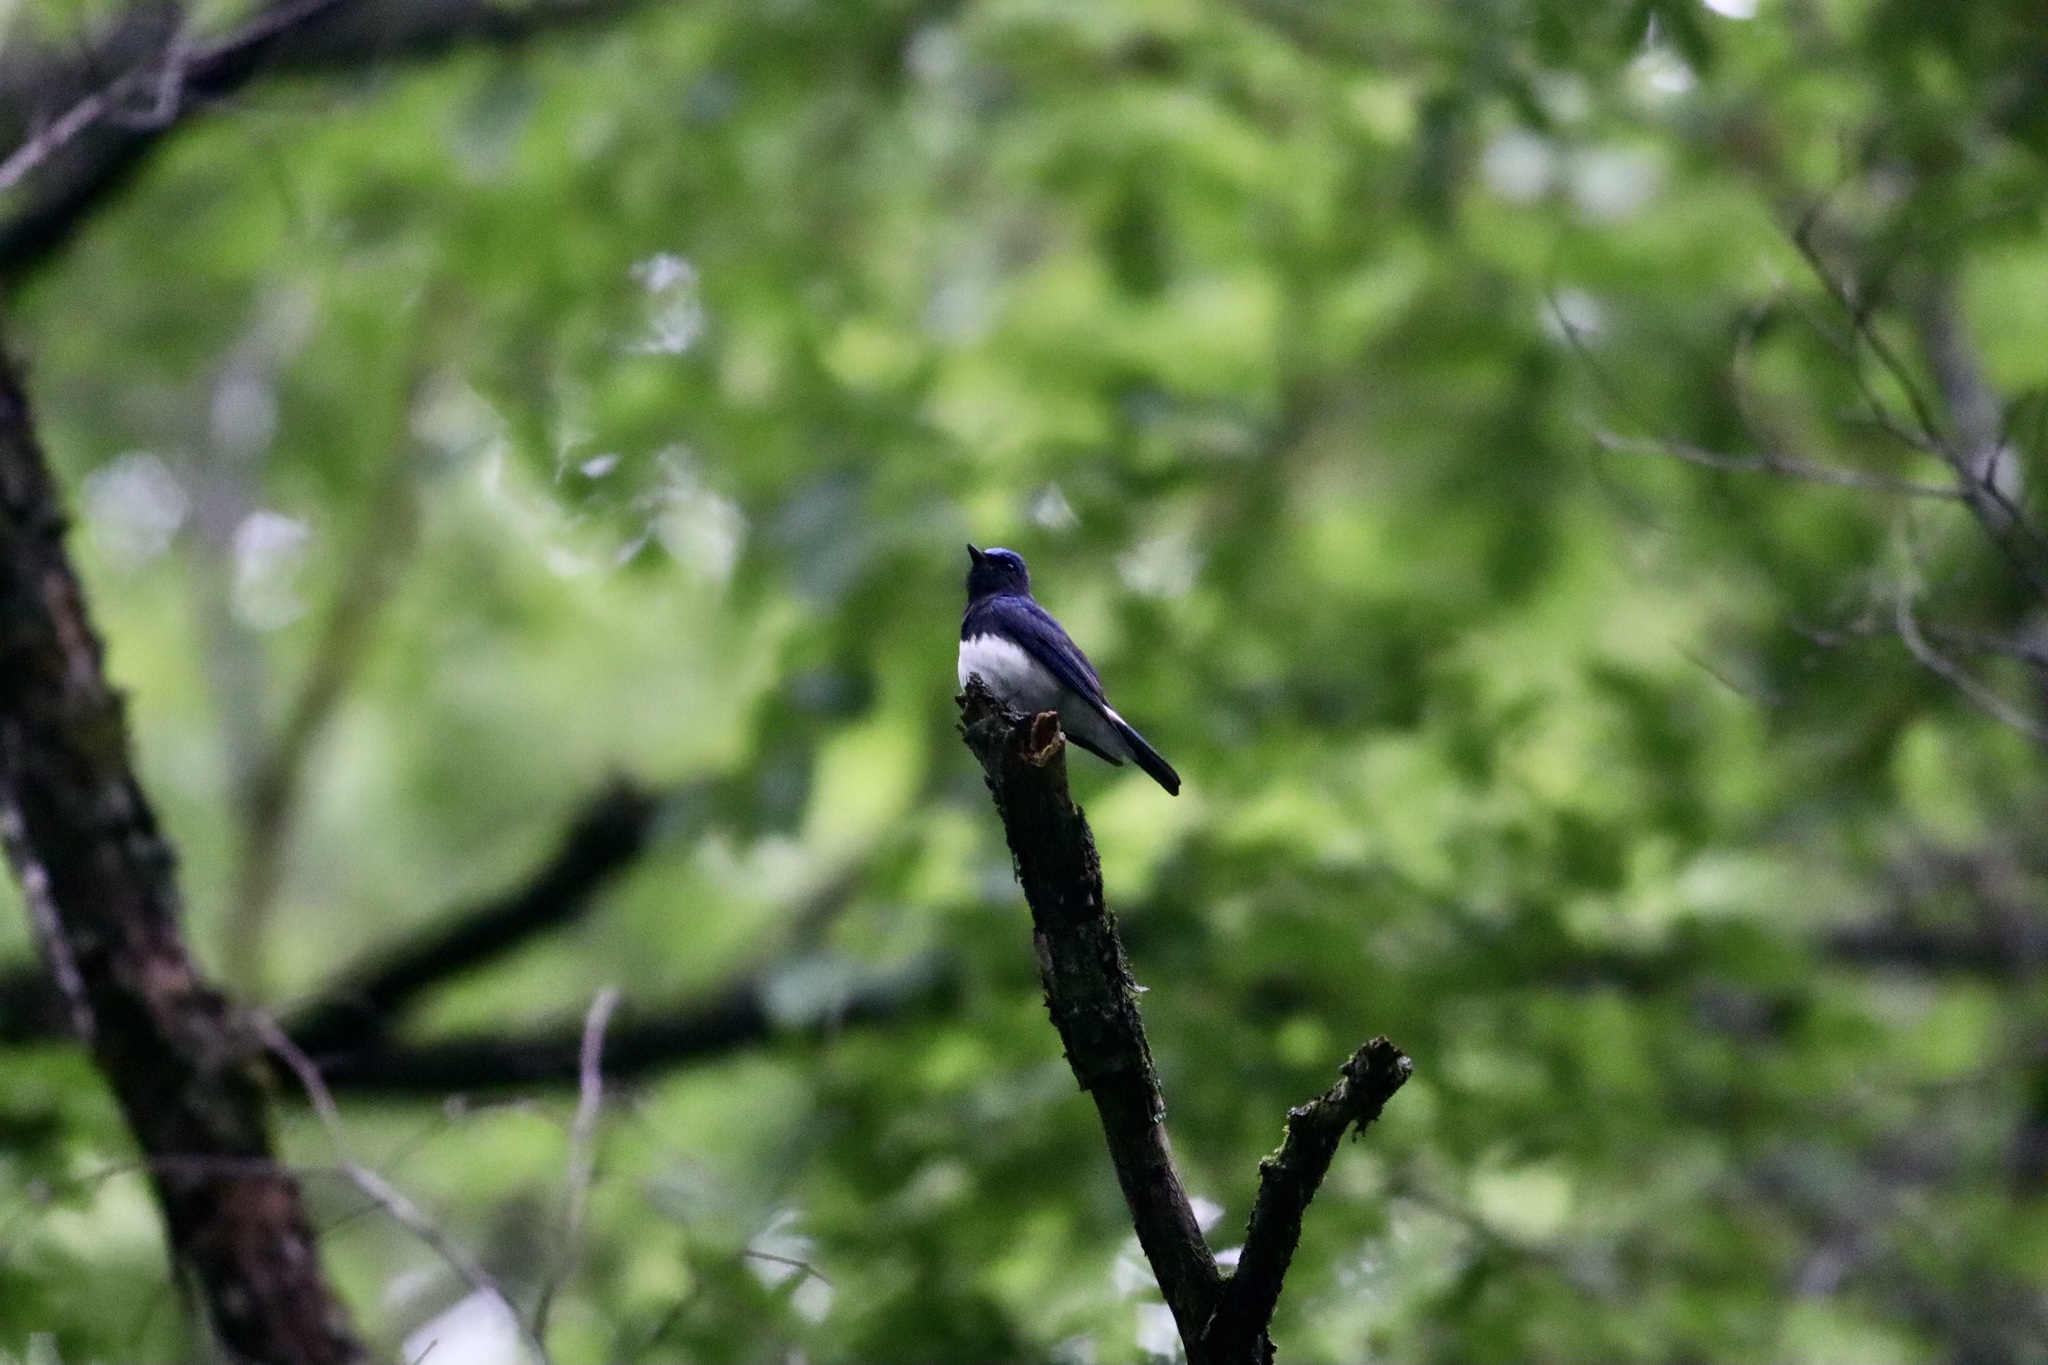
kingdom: Animalia
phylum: Chordata
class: Aves
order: Passeriformes
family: Muscicapidae
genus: Cyanoptila
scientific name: Cyanoptila cyanomelana
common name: Blue-and-white flycatcher
